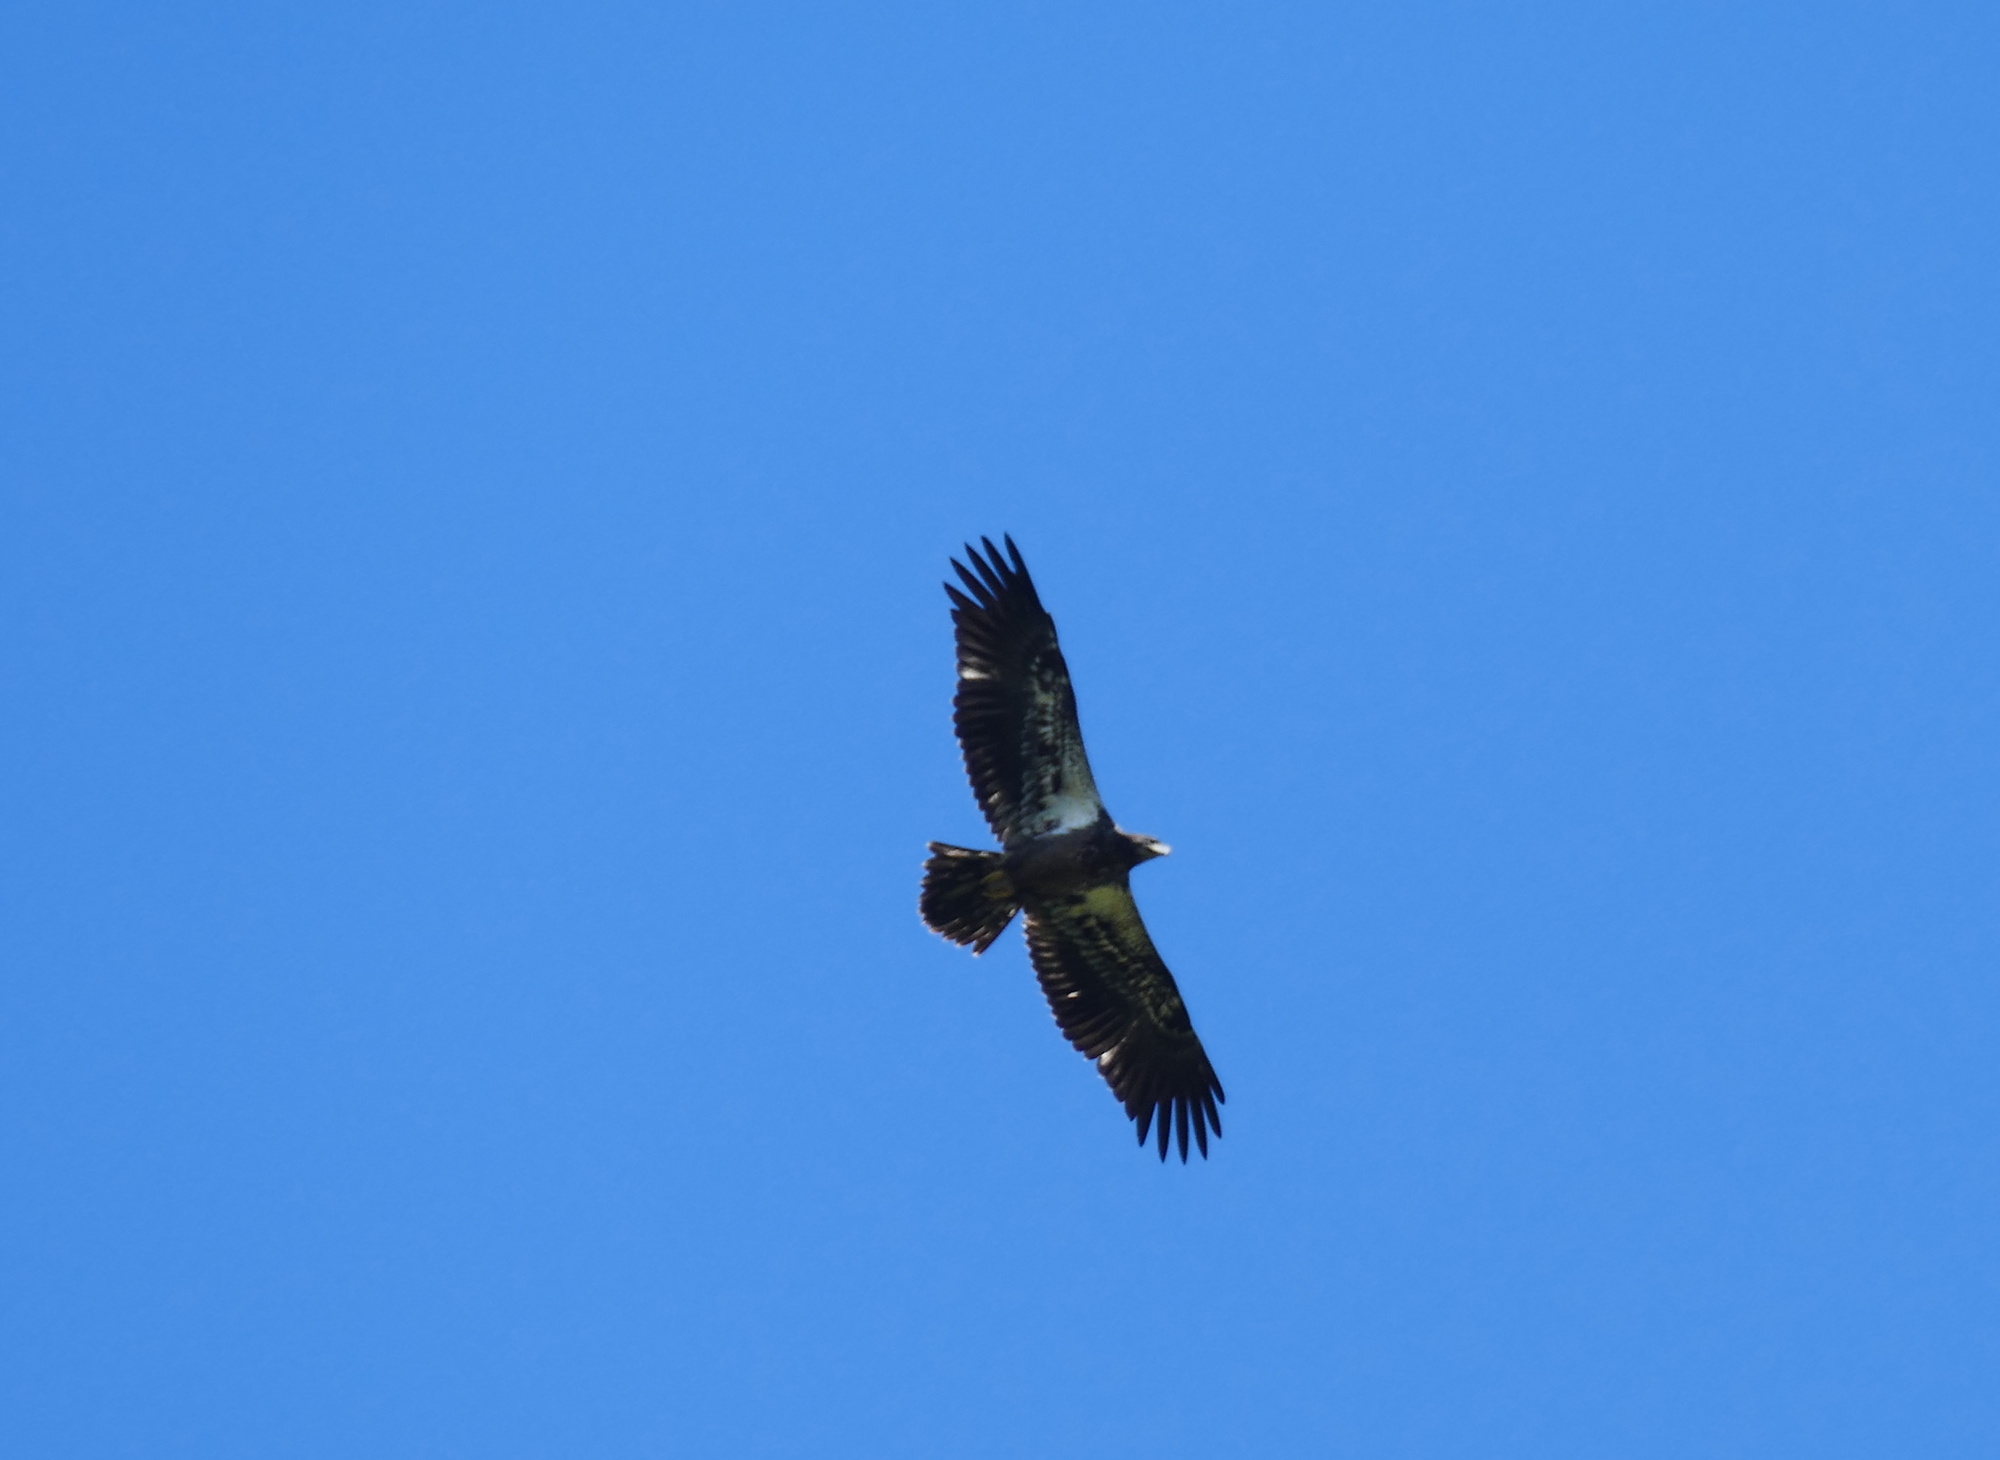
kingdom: Animalia
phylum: Chordata
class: Aves
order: Accipitriformes
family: Accipitridae
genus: Haliaeetus
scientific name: Haliaeetus leucocephalus
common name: Bald eagle
